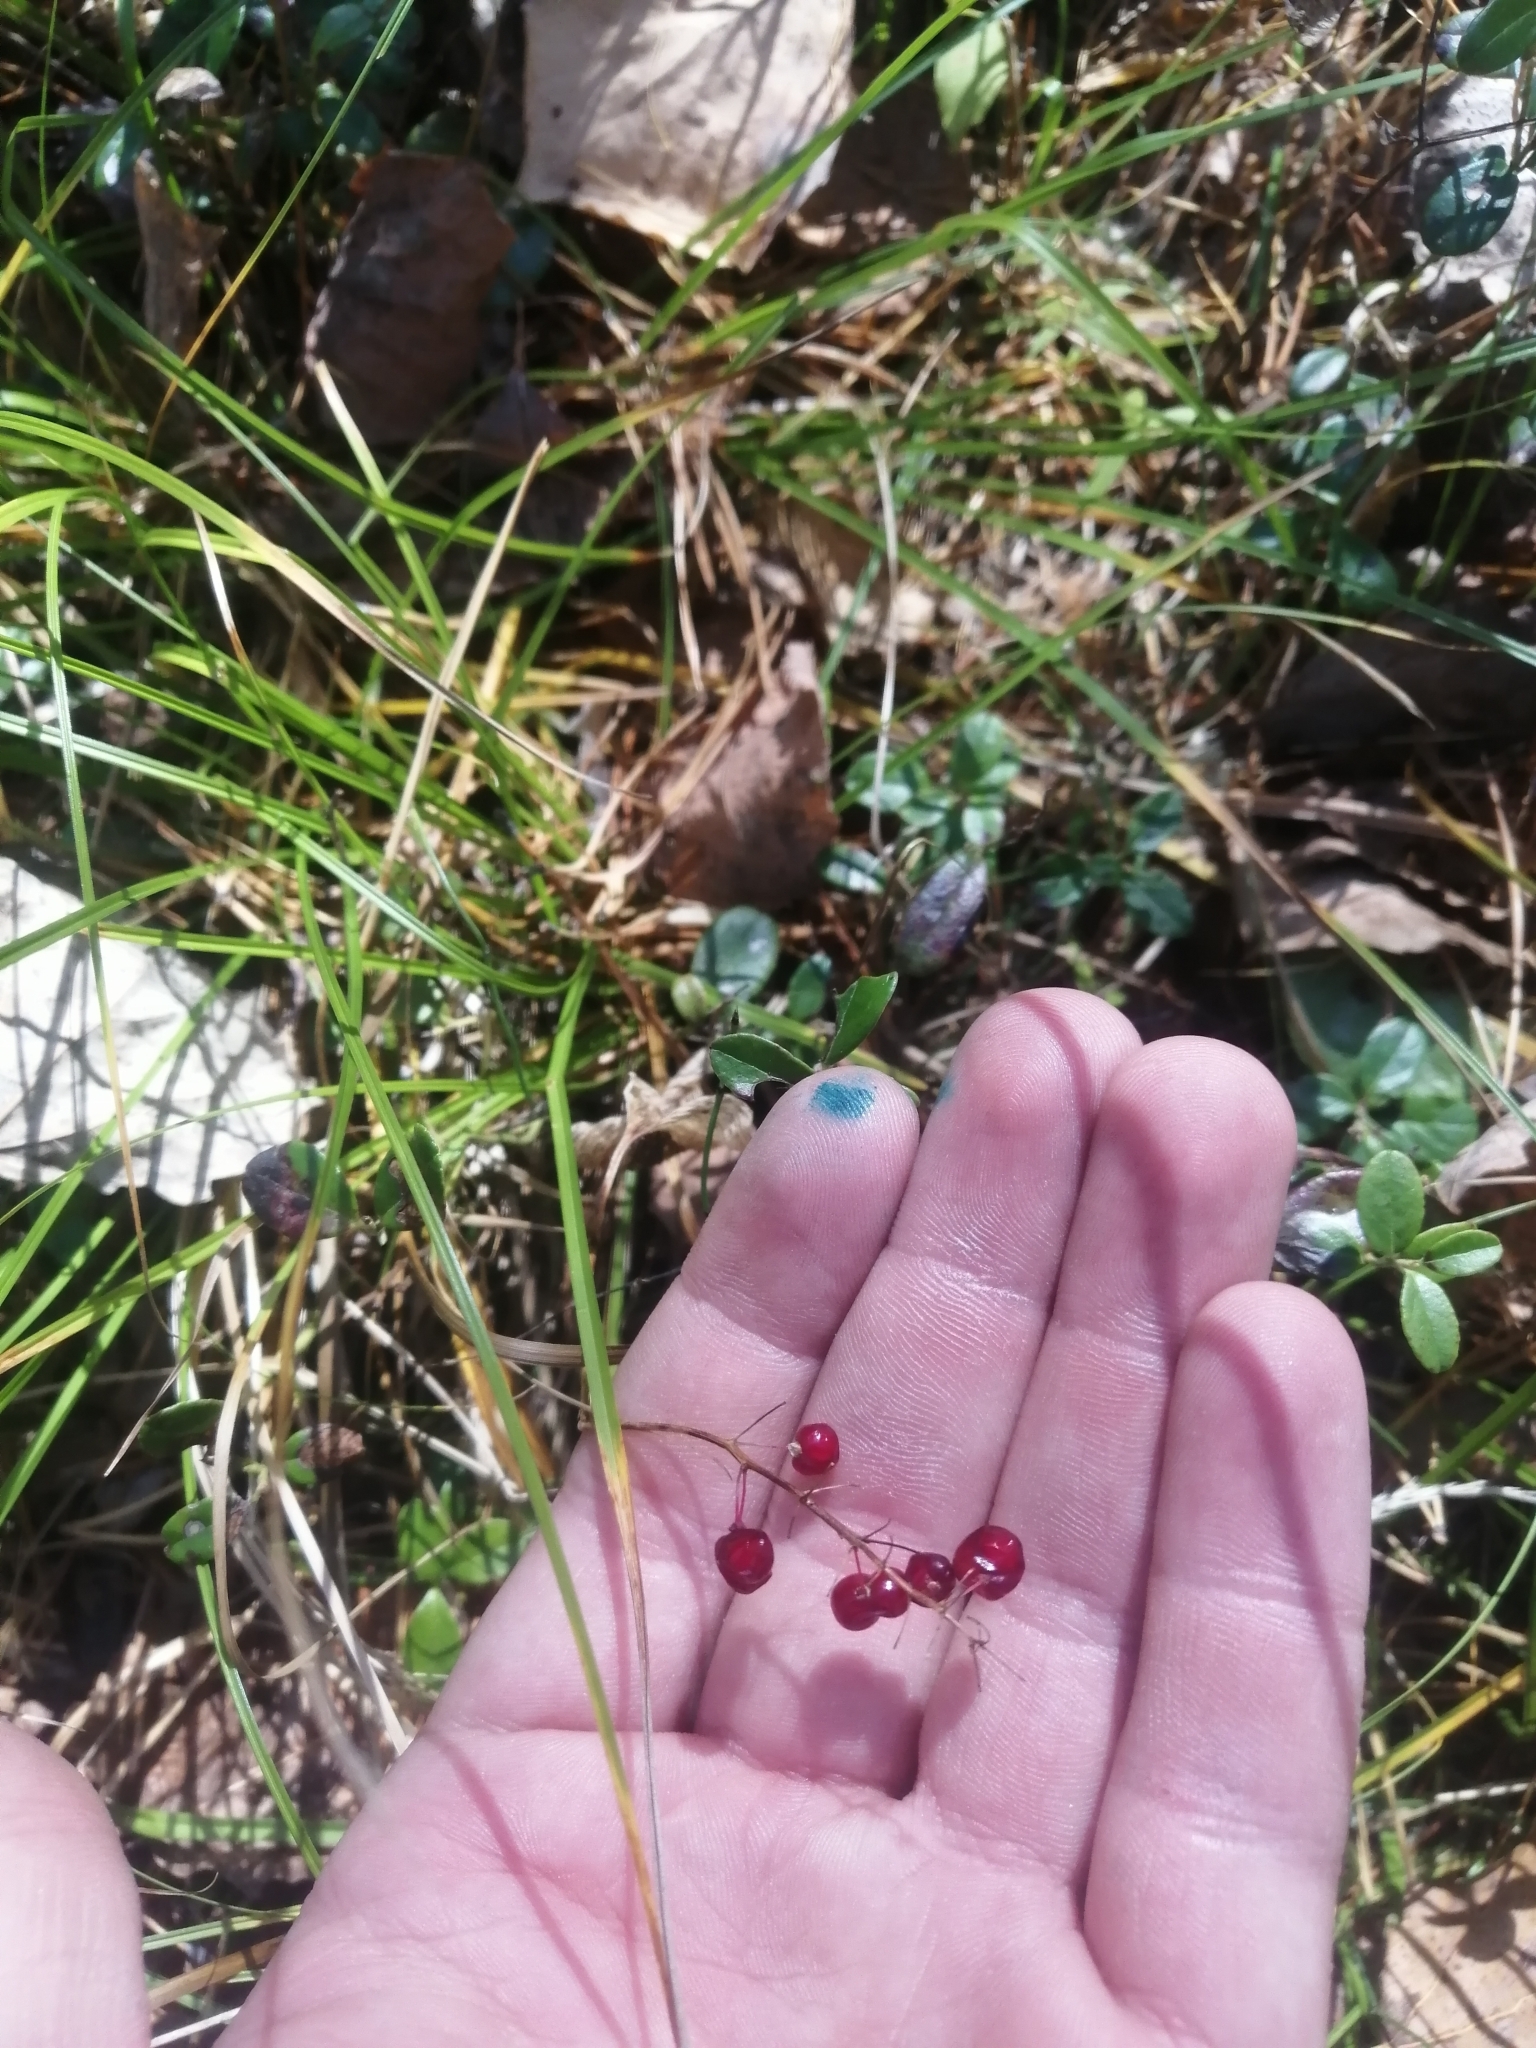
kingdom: Plantae
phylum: Tracheophyta
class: Liliopsida
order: Asparagales
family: Asparagaceae
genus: Maianthemum
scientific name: Maianthemum bifolium
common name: May lily
